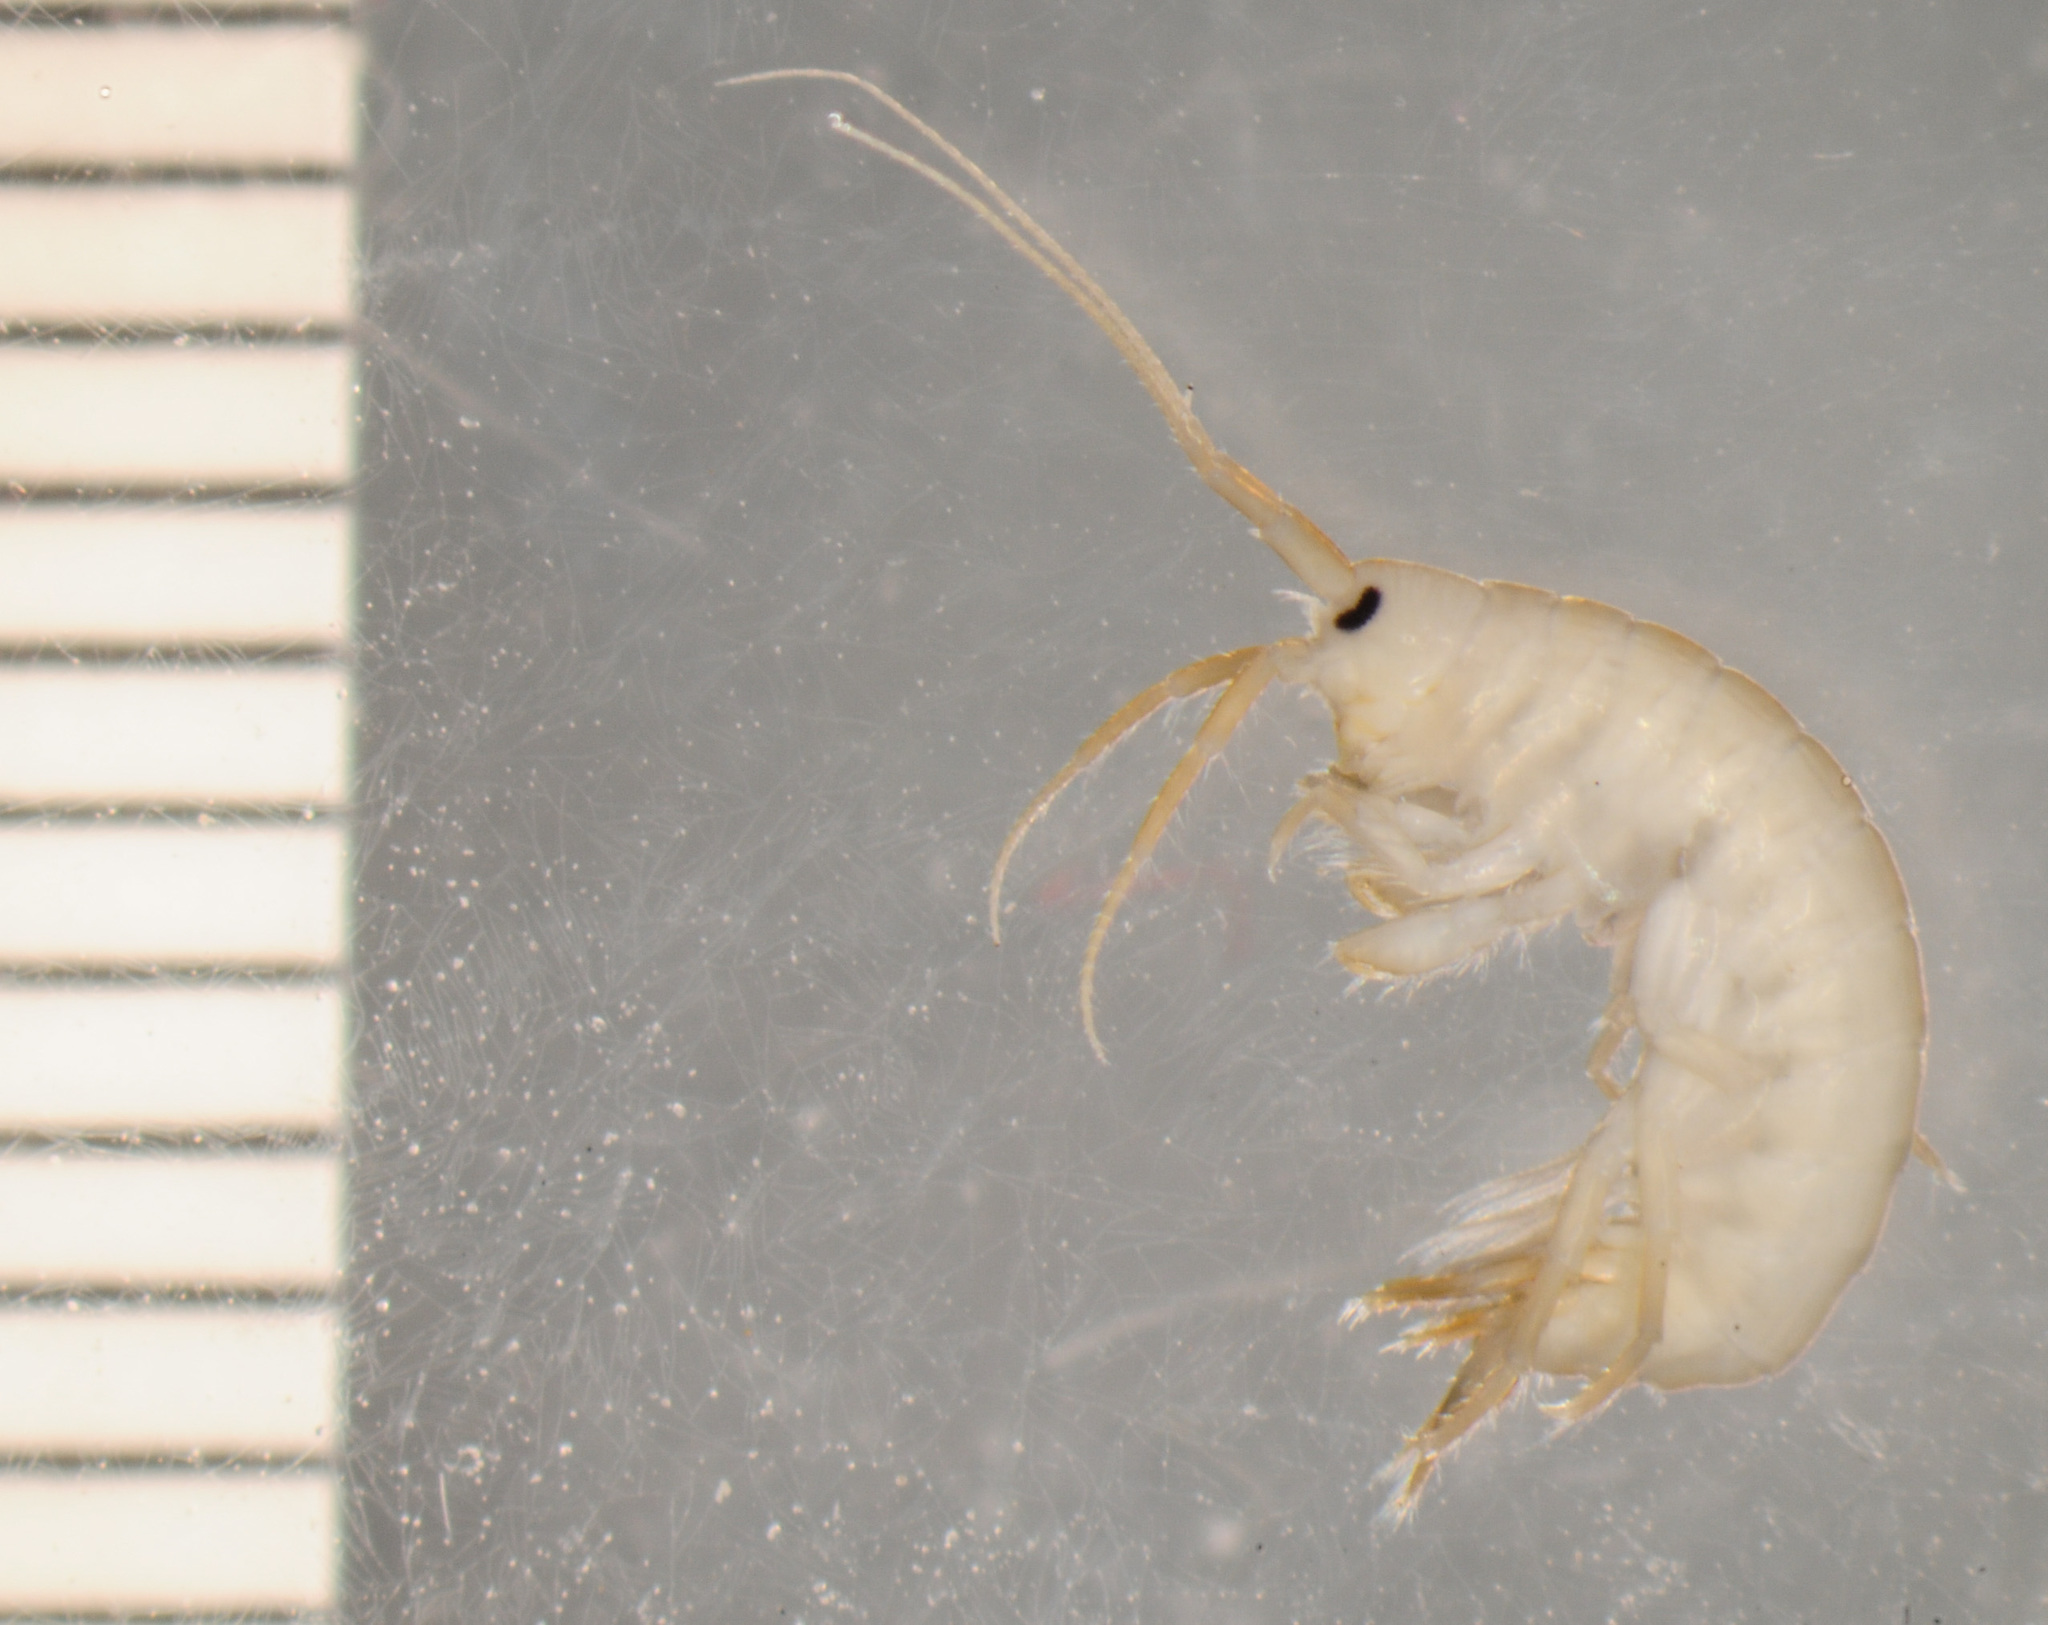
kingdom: Animalia
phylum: Arthropoda
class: Malacostraca
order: Amphipoda
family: Gammaridae
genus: Gammarus
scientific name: Gammarus hyalelloides
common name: Diminutive amphipod
